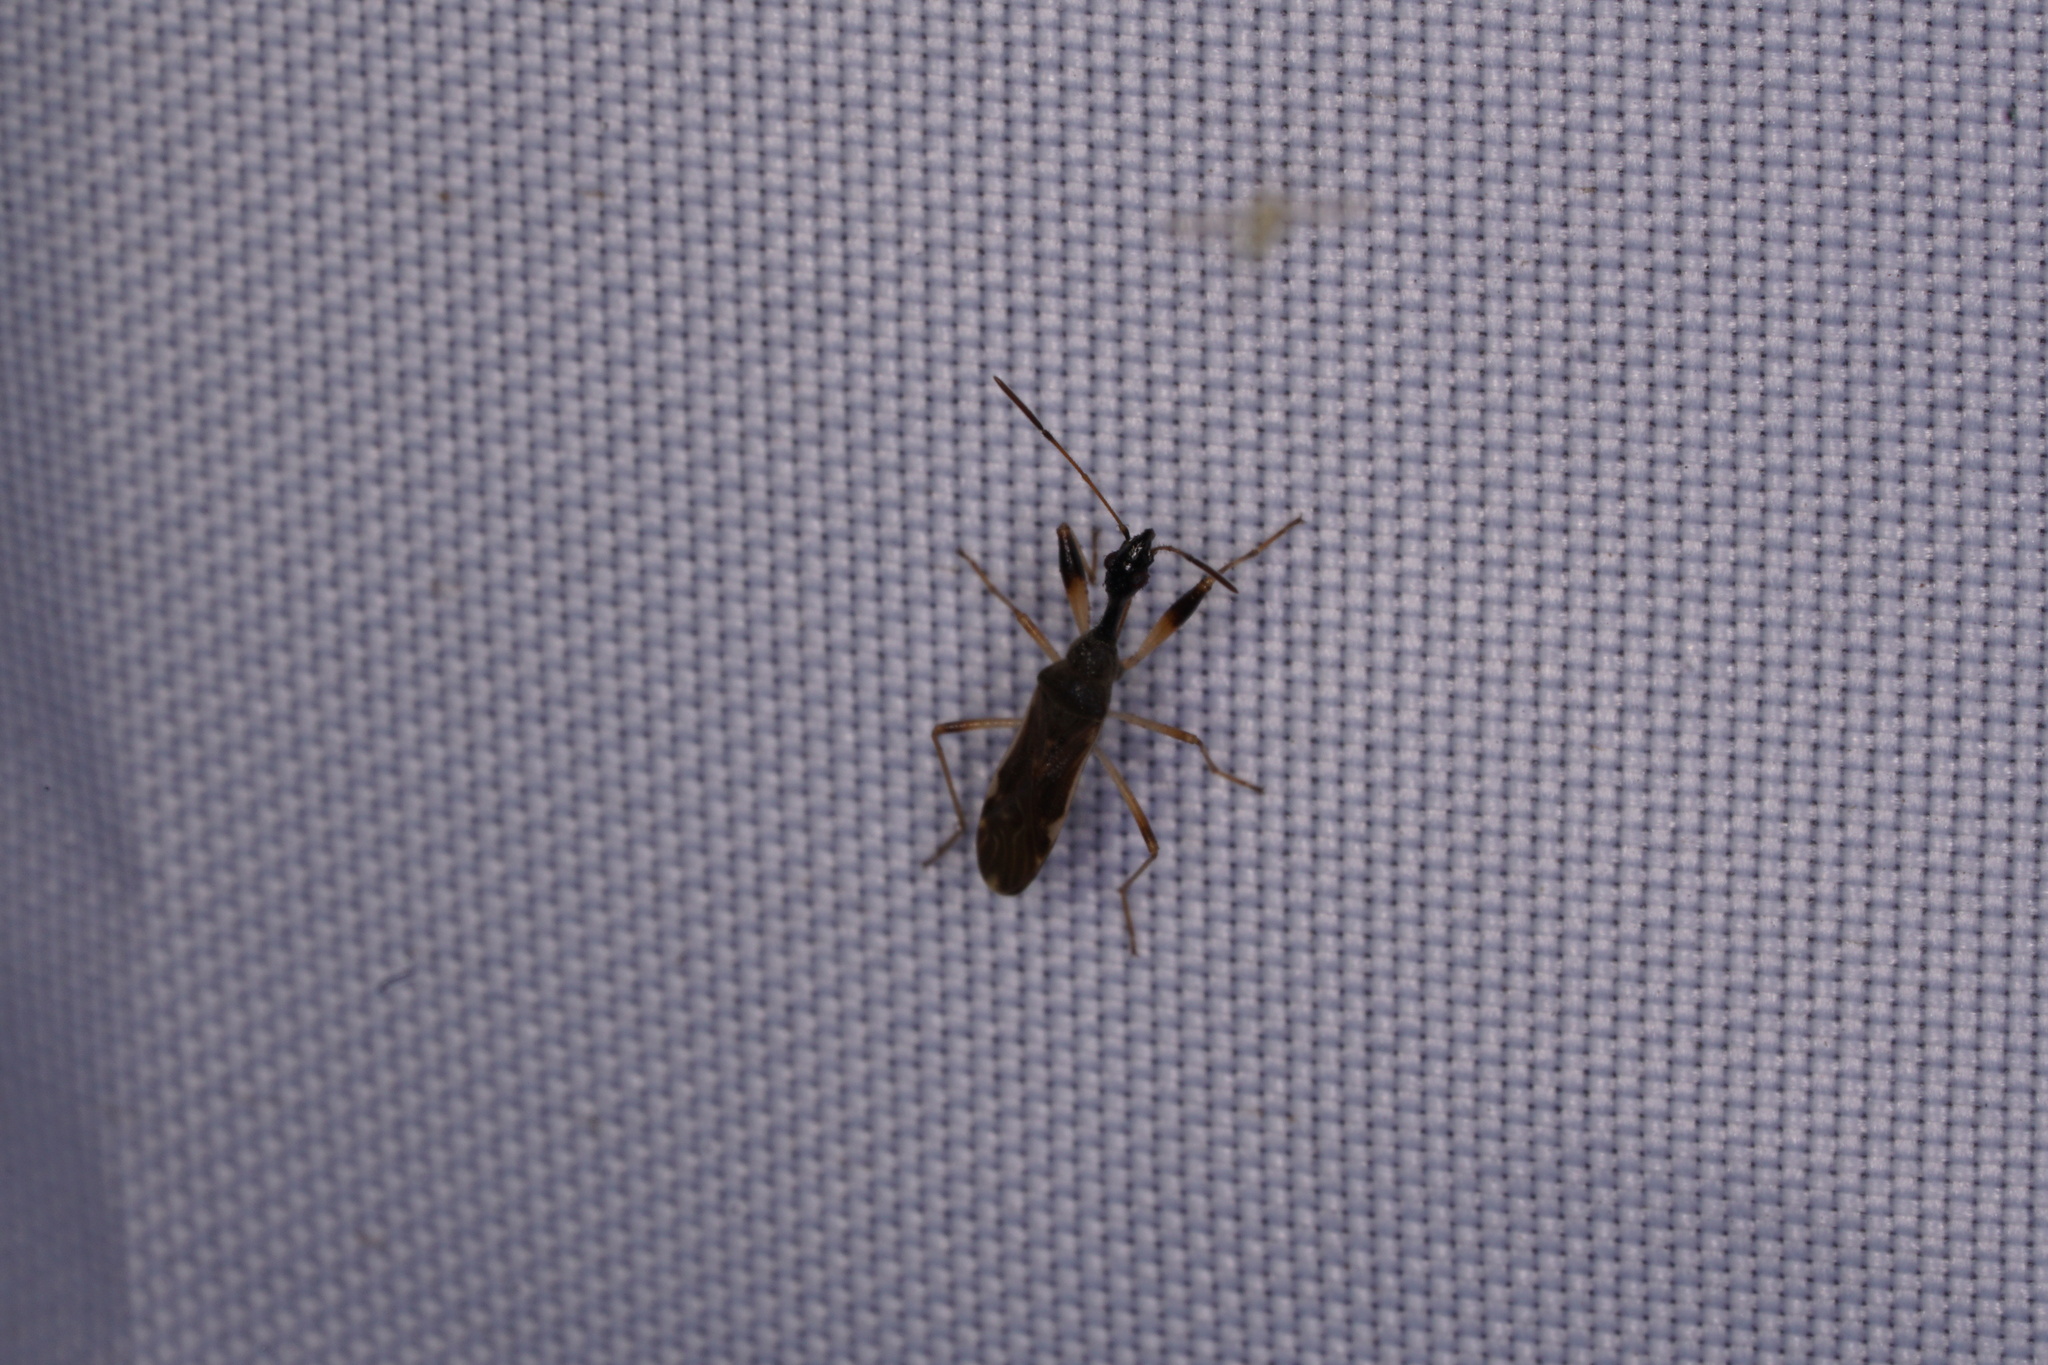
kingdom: Animalia
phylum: Arthropoda
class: Insecta
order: Hemiptera
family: Rhyparochromidae
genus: Myodocha
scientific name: Myodocha serripes
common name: Long-necked seed bug
